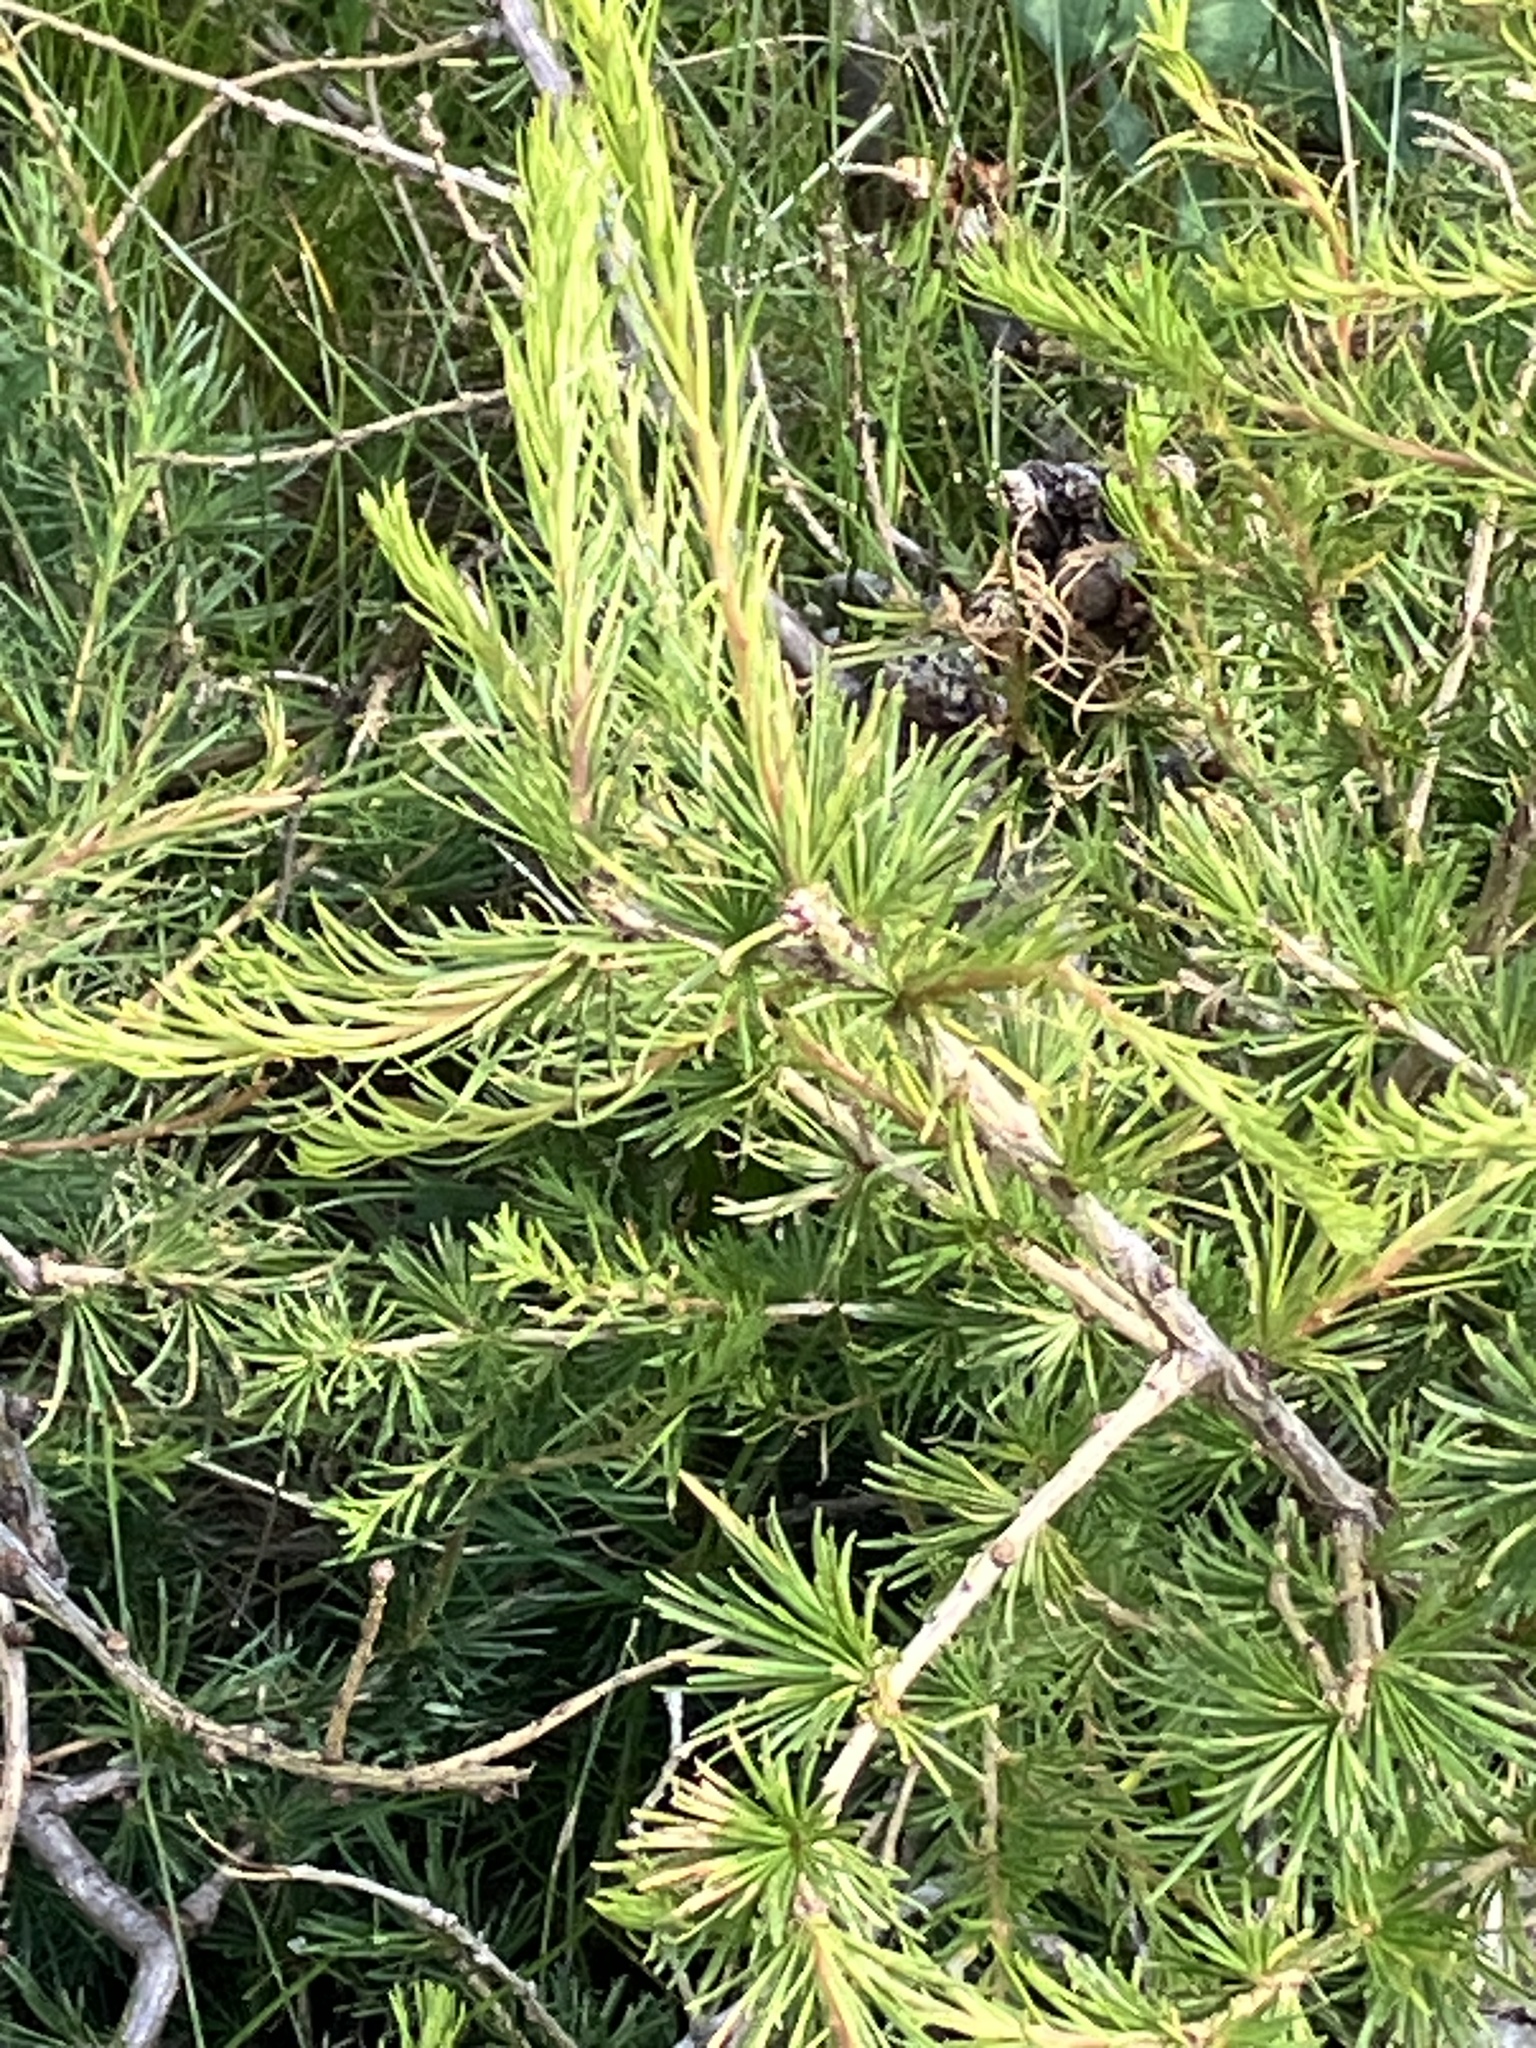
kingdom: Plantae
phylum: Tracheophyta
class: Pinopsida
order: Pinales
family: Pinaceae
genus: Larix
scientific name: Larix decidua
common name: European larch
